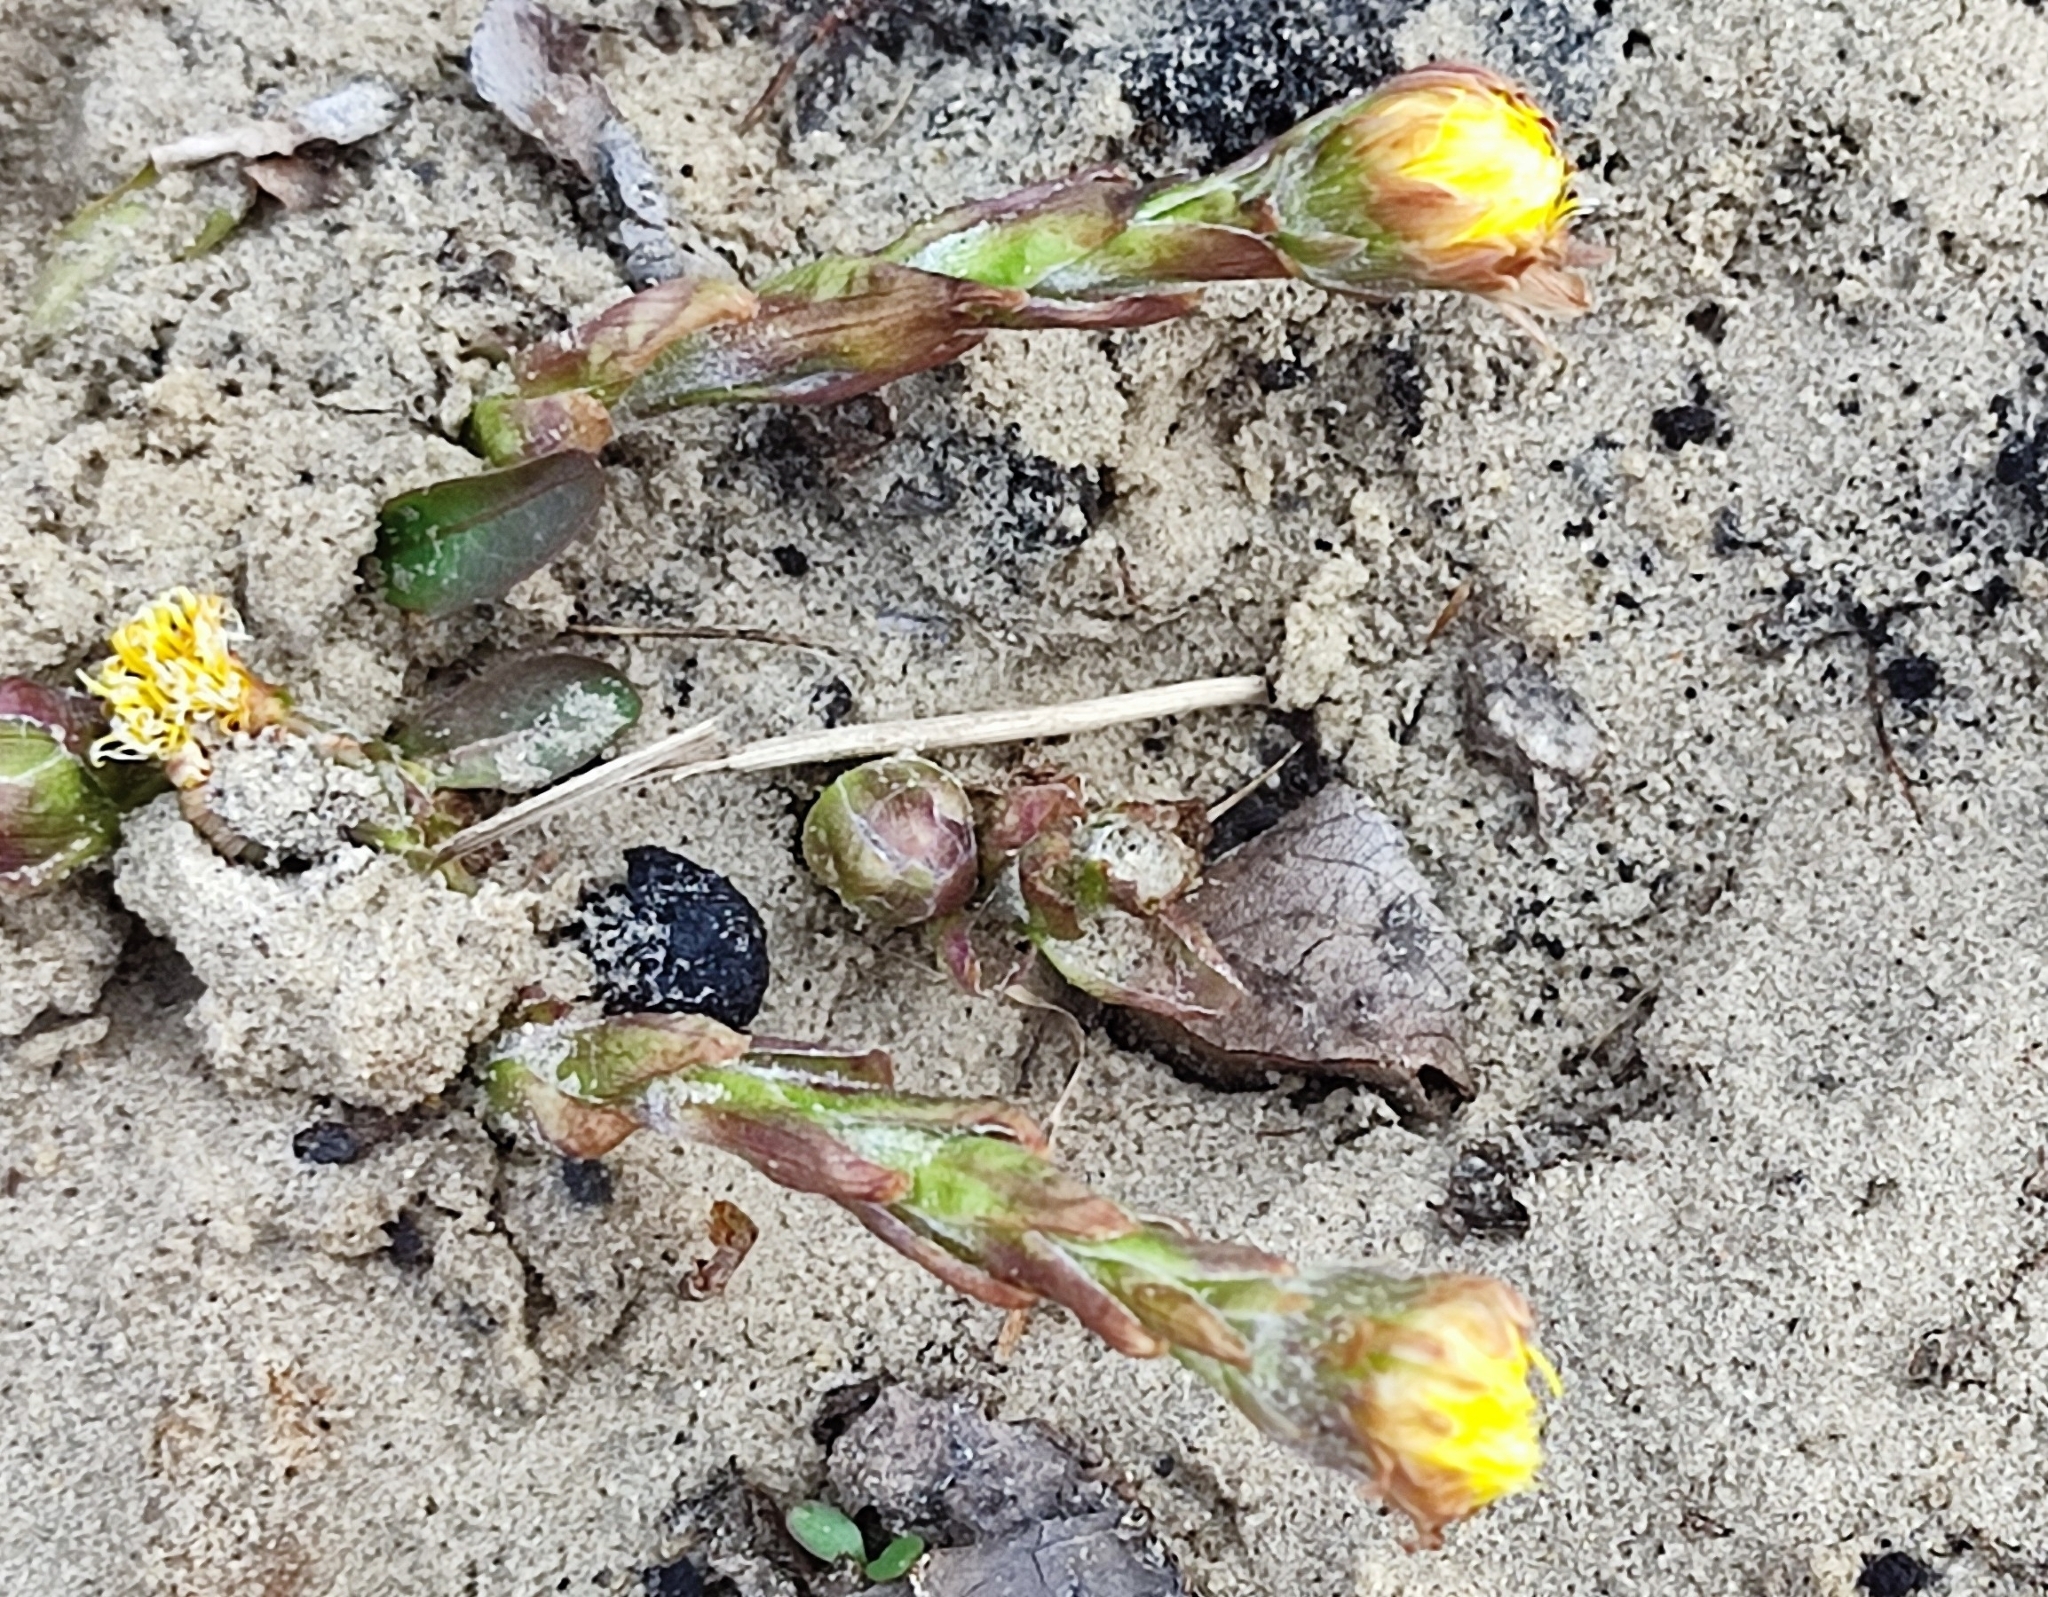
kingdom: Plantae
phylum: Tracheophyta
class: Magnoliopsida
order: Asterales
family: Asteraceae
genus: Tussilago
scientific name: Tussilago farfara
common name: Coltsfoot
